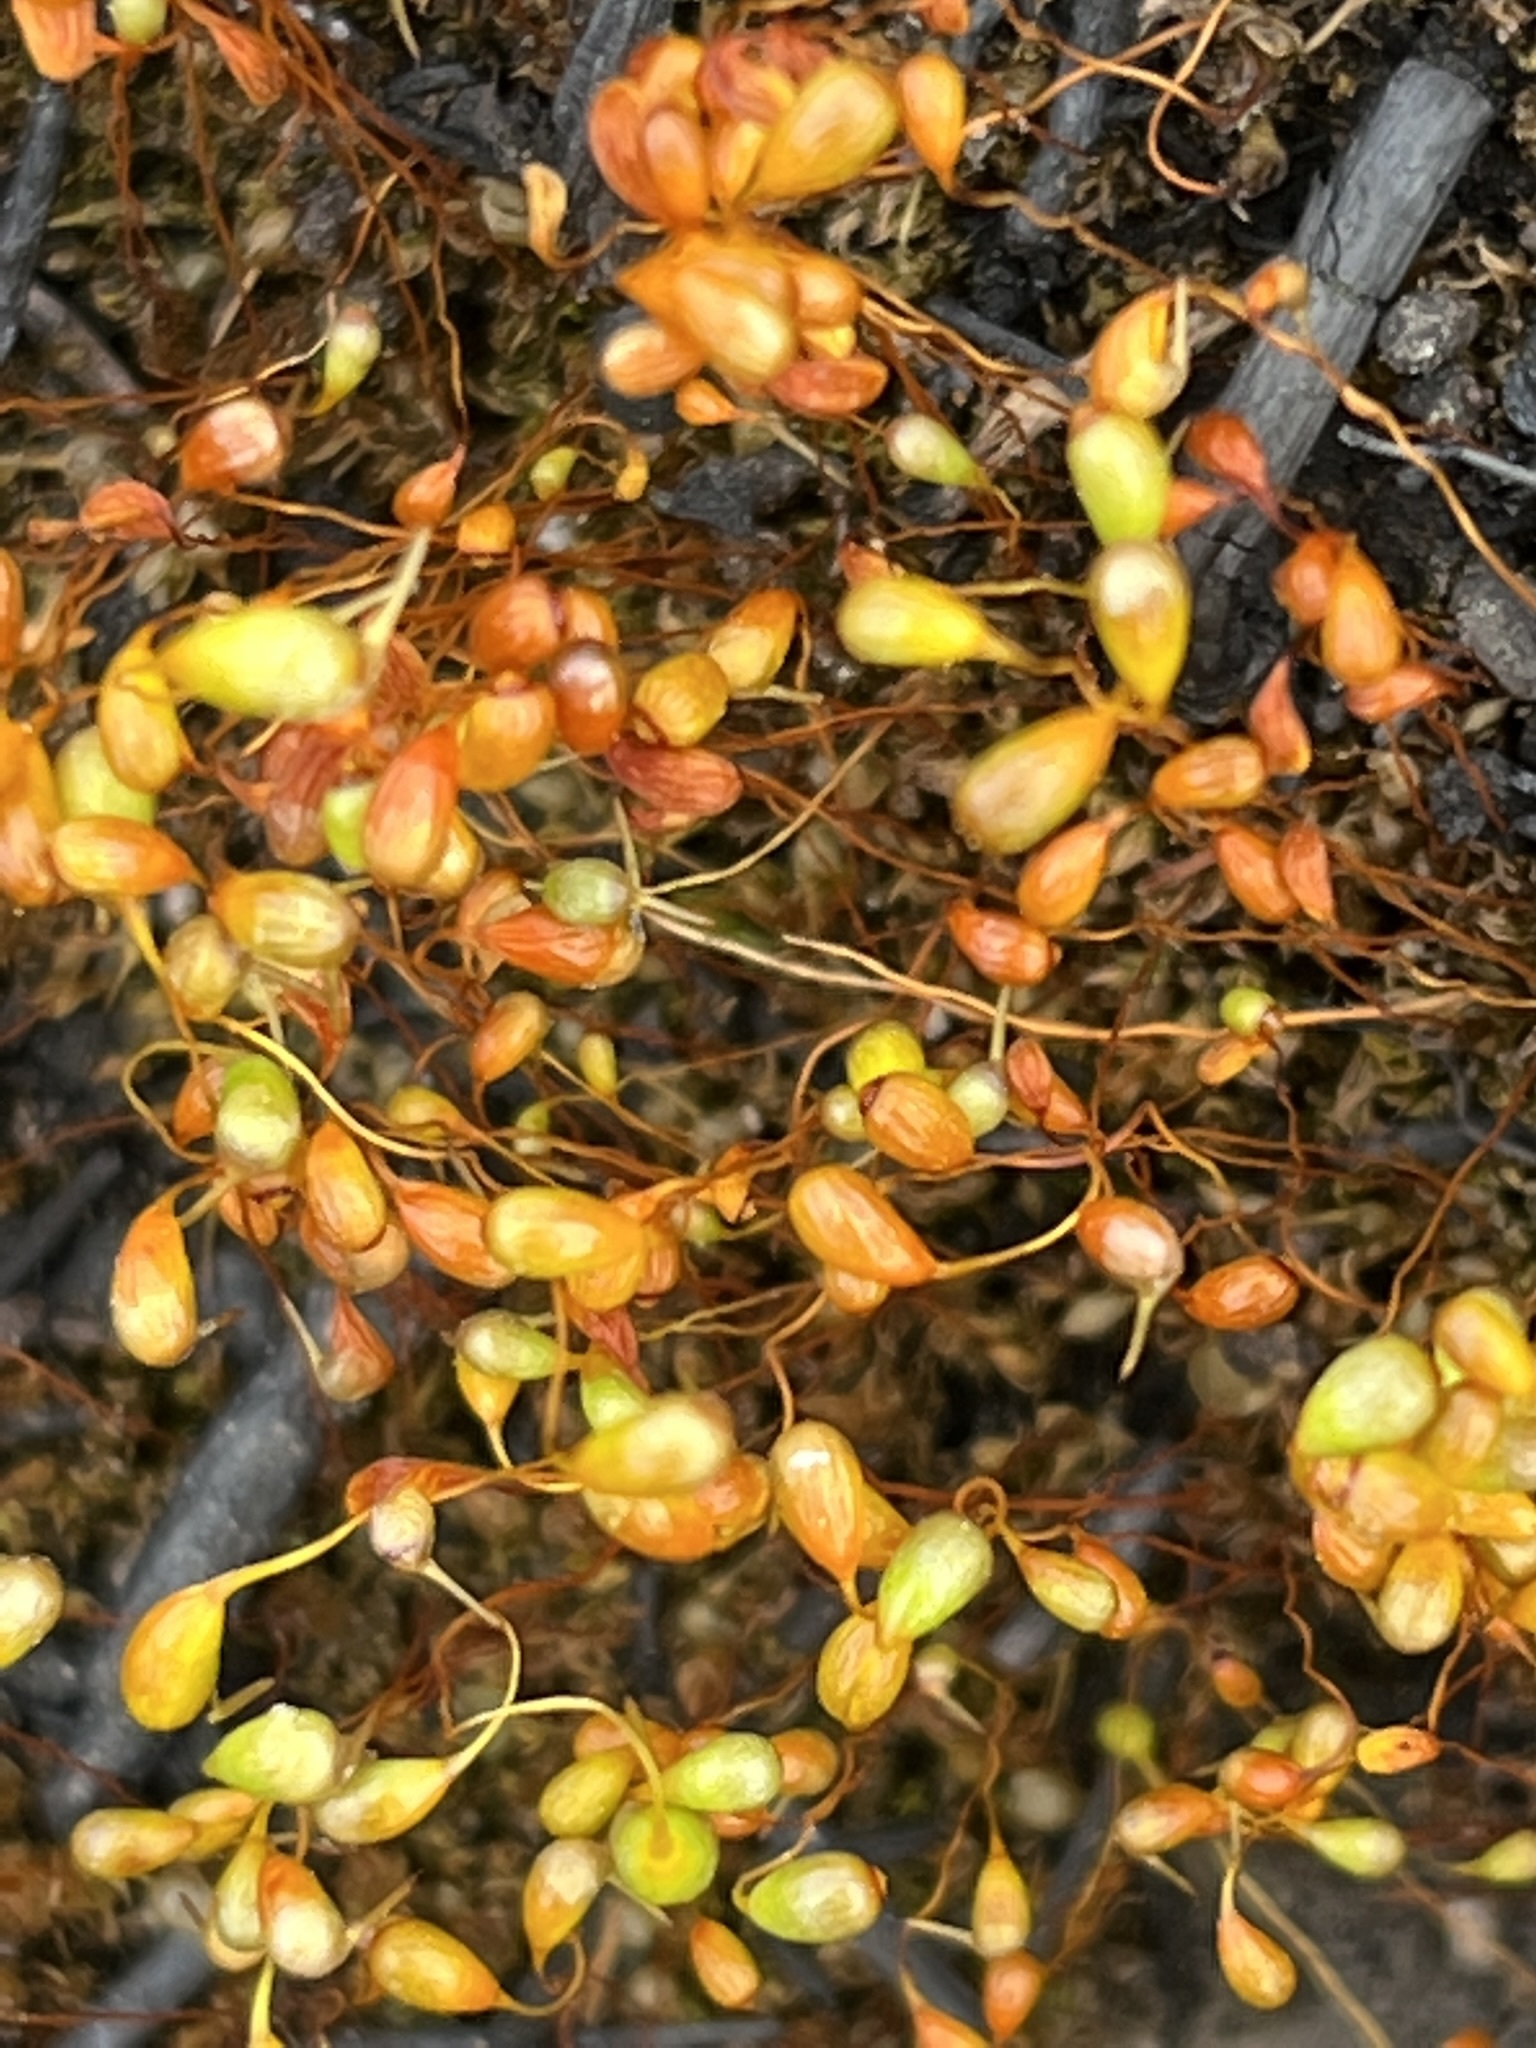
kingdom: Plantae
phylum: Bryophyta
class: Bryopsida
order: Funariales
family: Funariaceae
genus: Funaria
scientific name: Funaria hygrometrica
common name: Common cord moss
